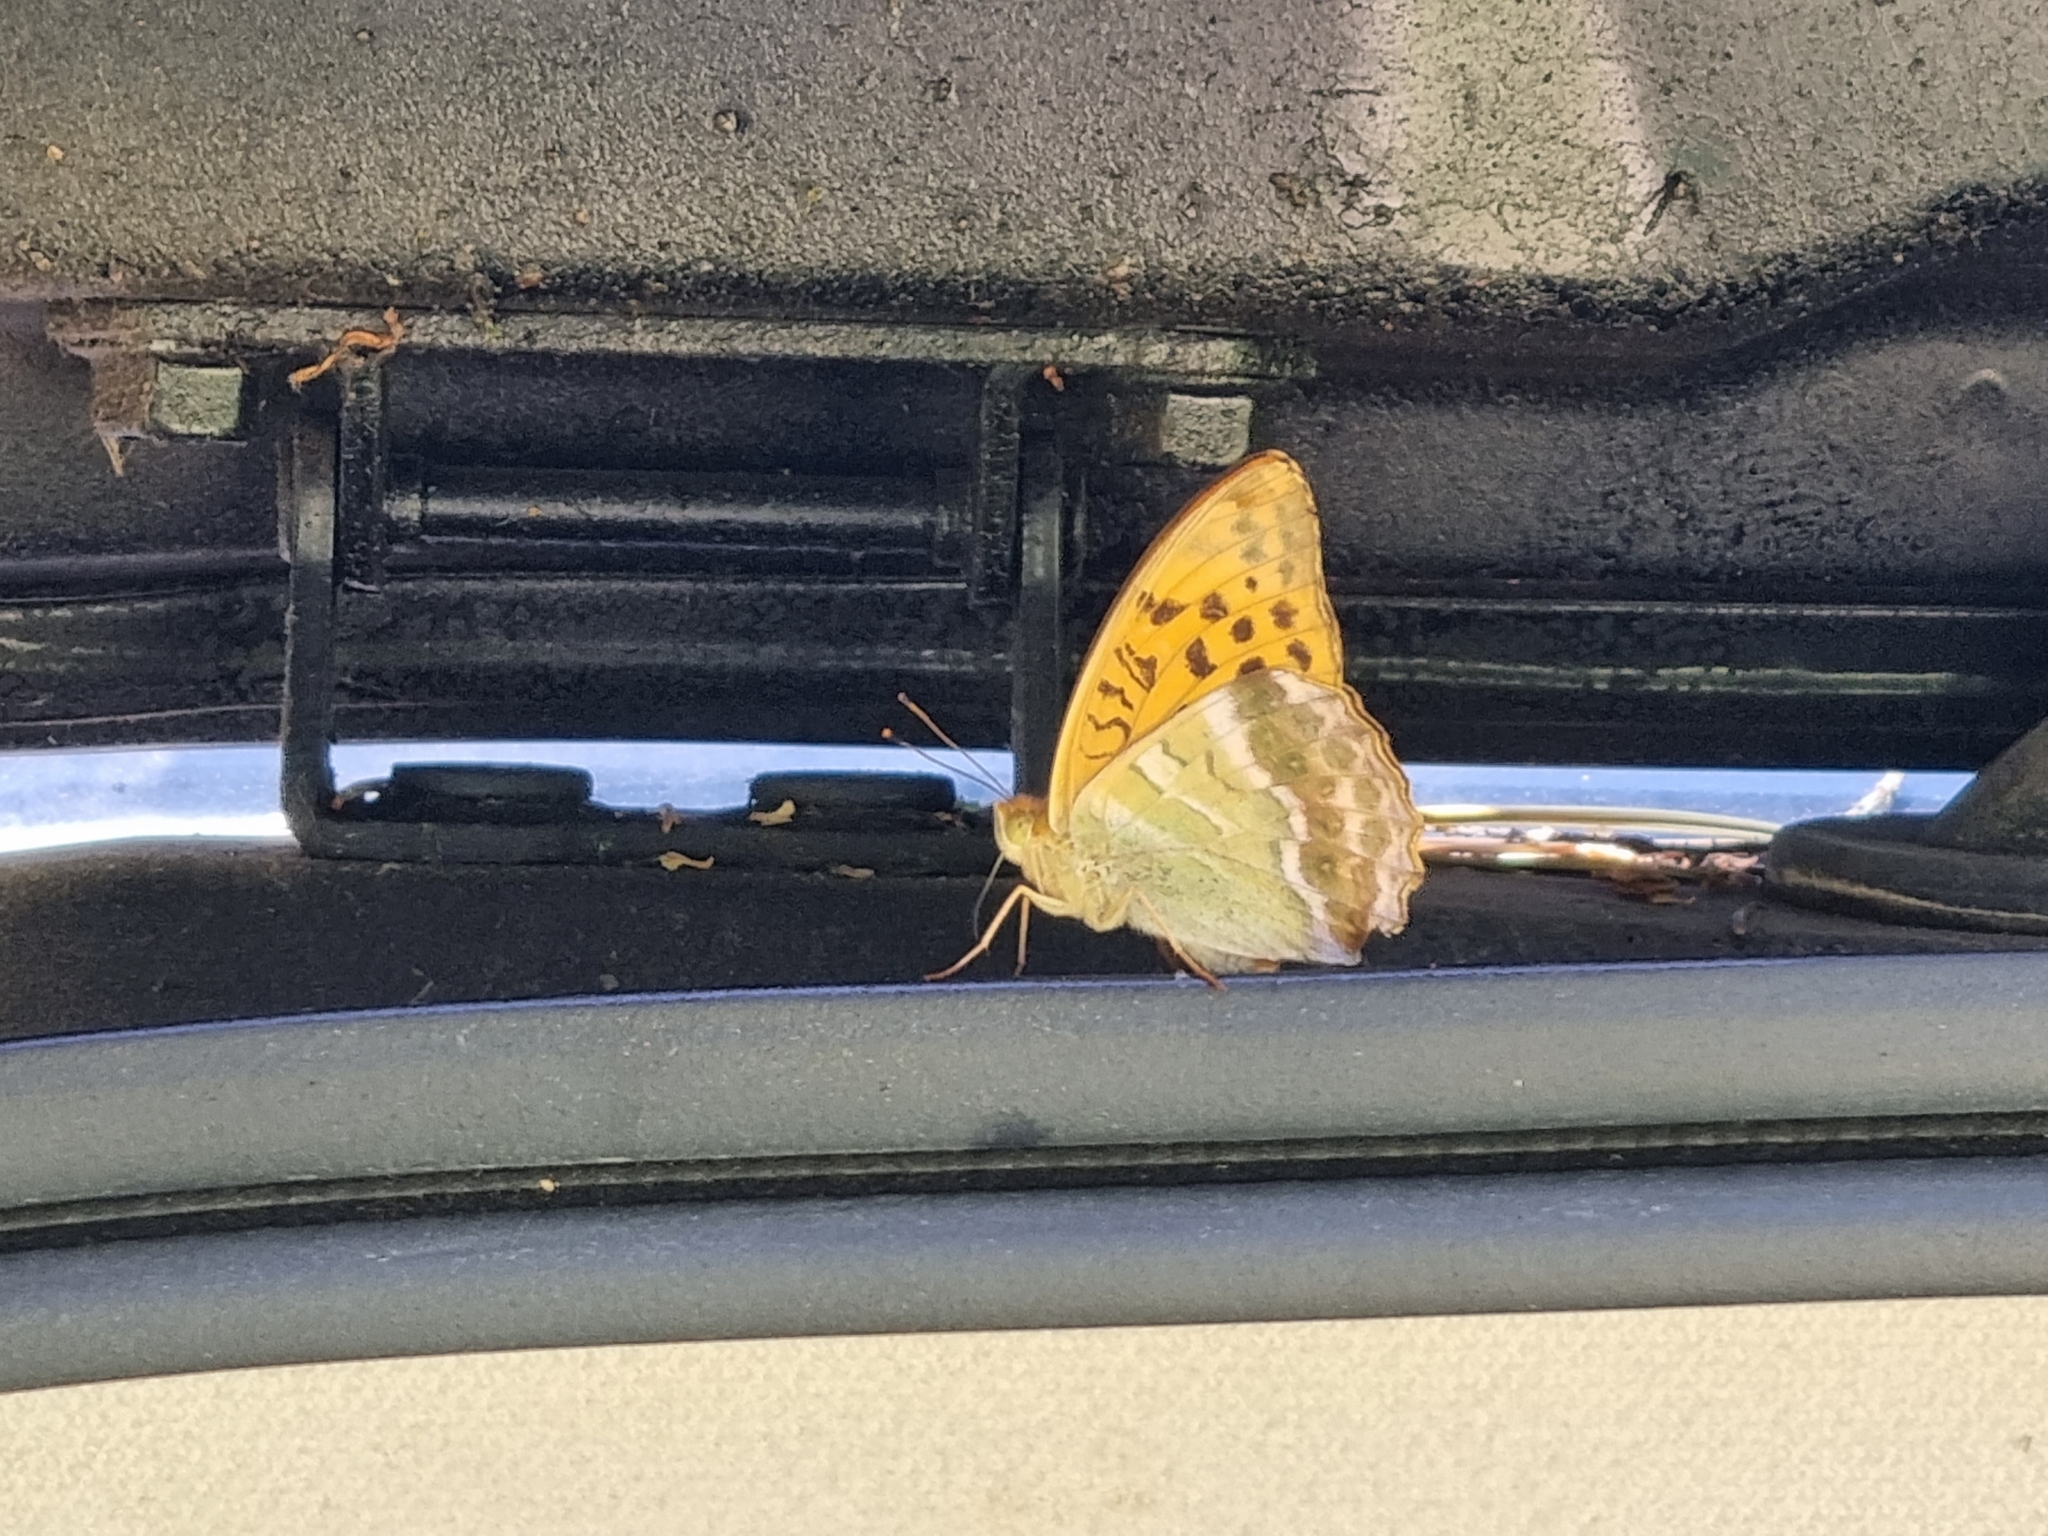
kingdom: Animalia
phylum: Arthropoda
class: Insecta
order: Lepidoptera
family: Nymphalidae
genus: Argynnis
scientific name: Argynnis paphia
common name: Silver-washed fritillary
